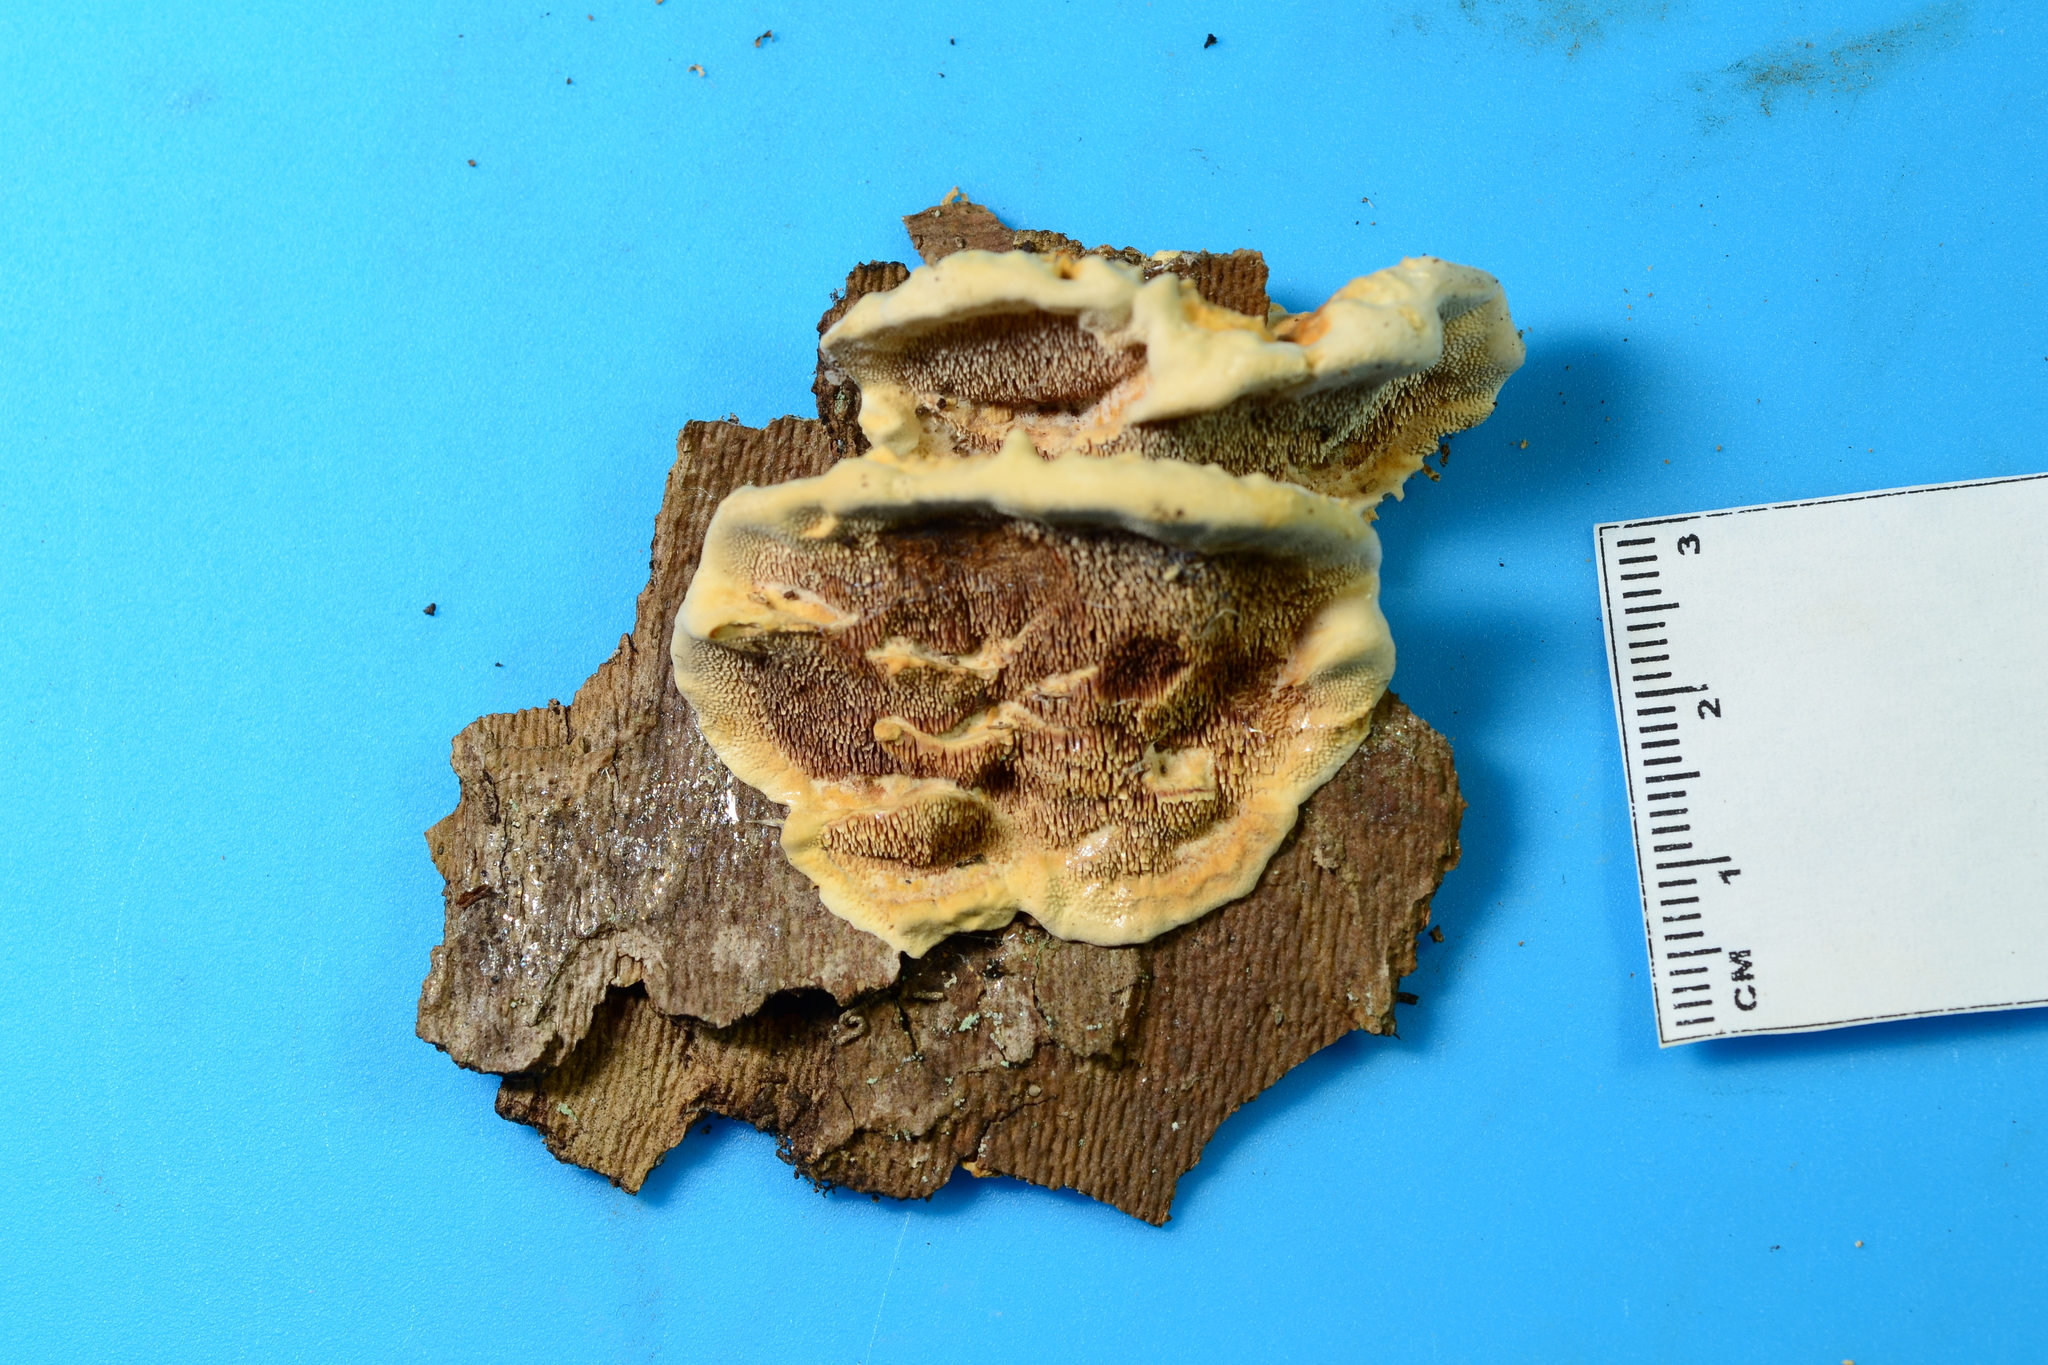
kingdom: Fungi
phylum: Basidiomycota
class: Agaricomycetes
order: Polyporales
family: Steccherinaceae
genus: Steccherinum
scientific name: Steccherinum rawakense
